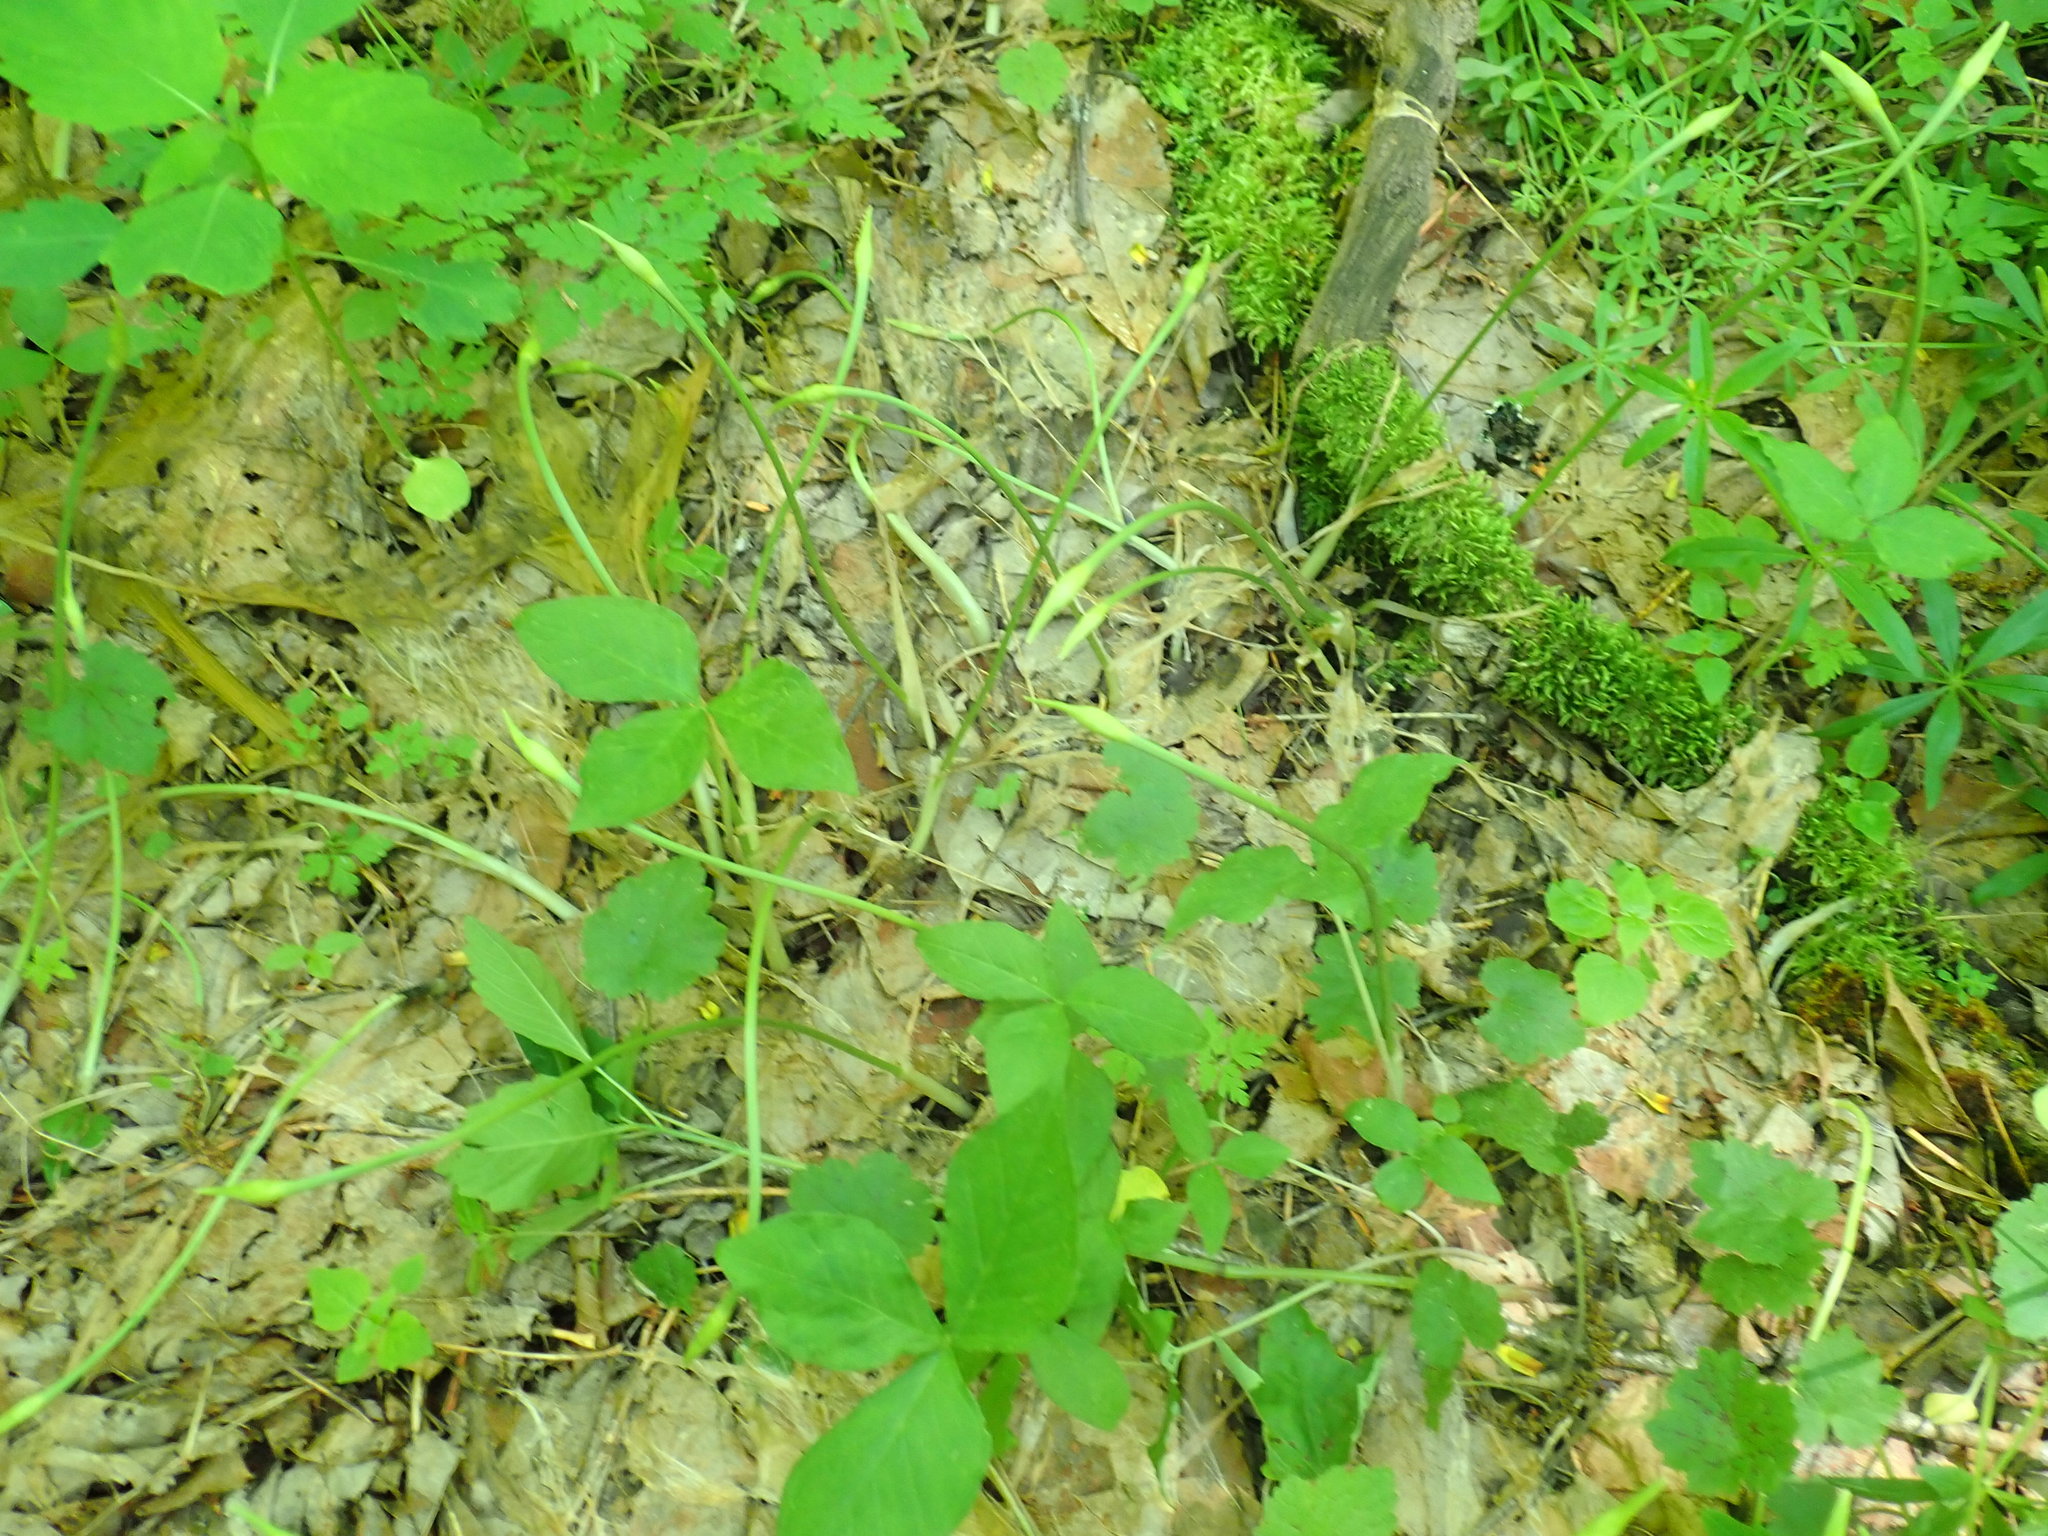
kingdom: Plantae
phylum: Tracheophyta
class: Liliopsida
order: Asparagales
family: Amaryllidaceae
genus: Allium
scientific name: Allium tricoccum
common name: Ramp
